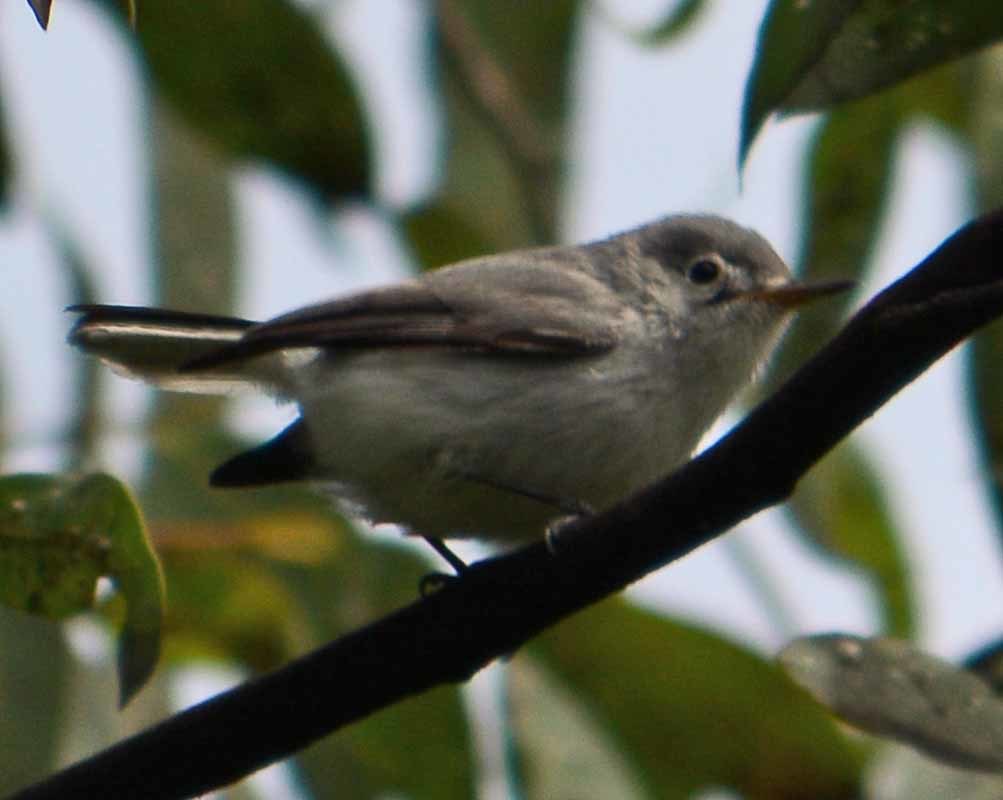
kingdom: Animalia
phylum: Chordata
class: Aves
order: Passeriformes
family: Polioptilidae
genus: Polioptila
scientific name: Polioptila caerulea
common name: Blue-gray gnatcatcher
